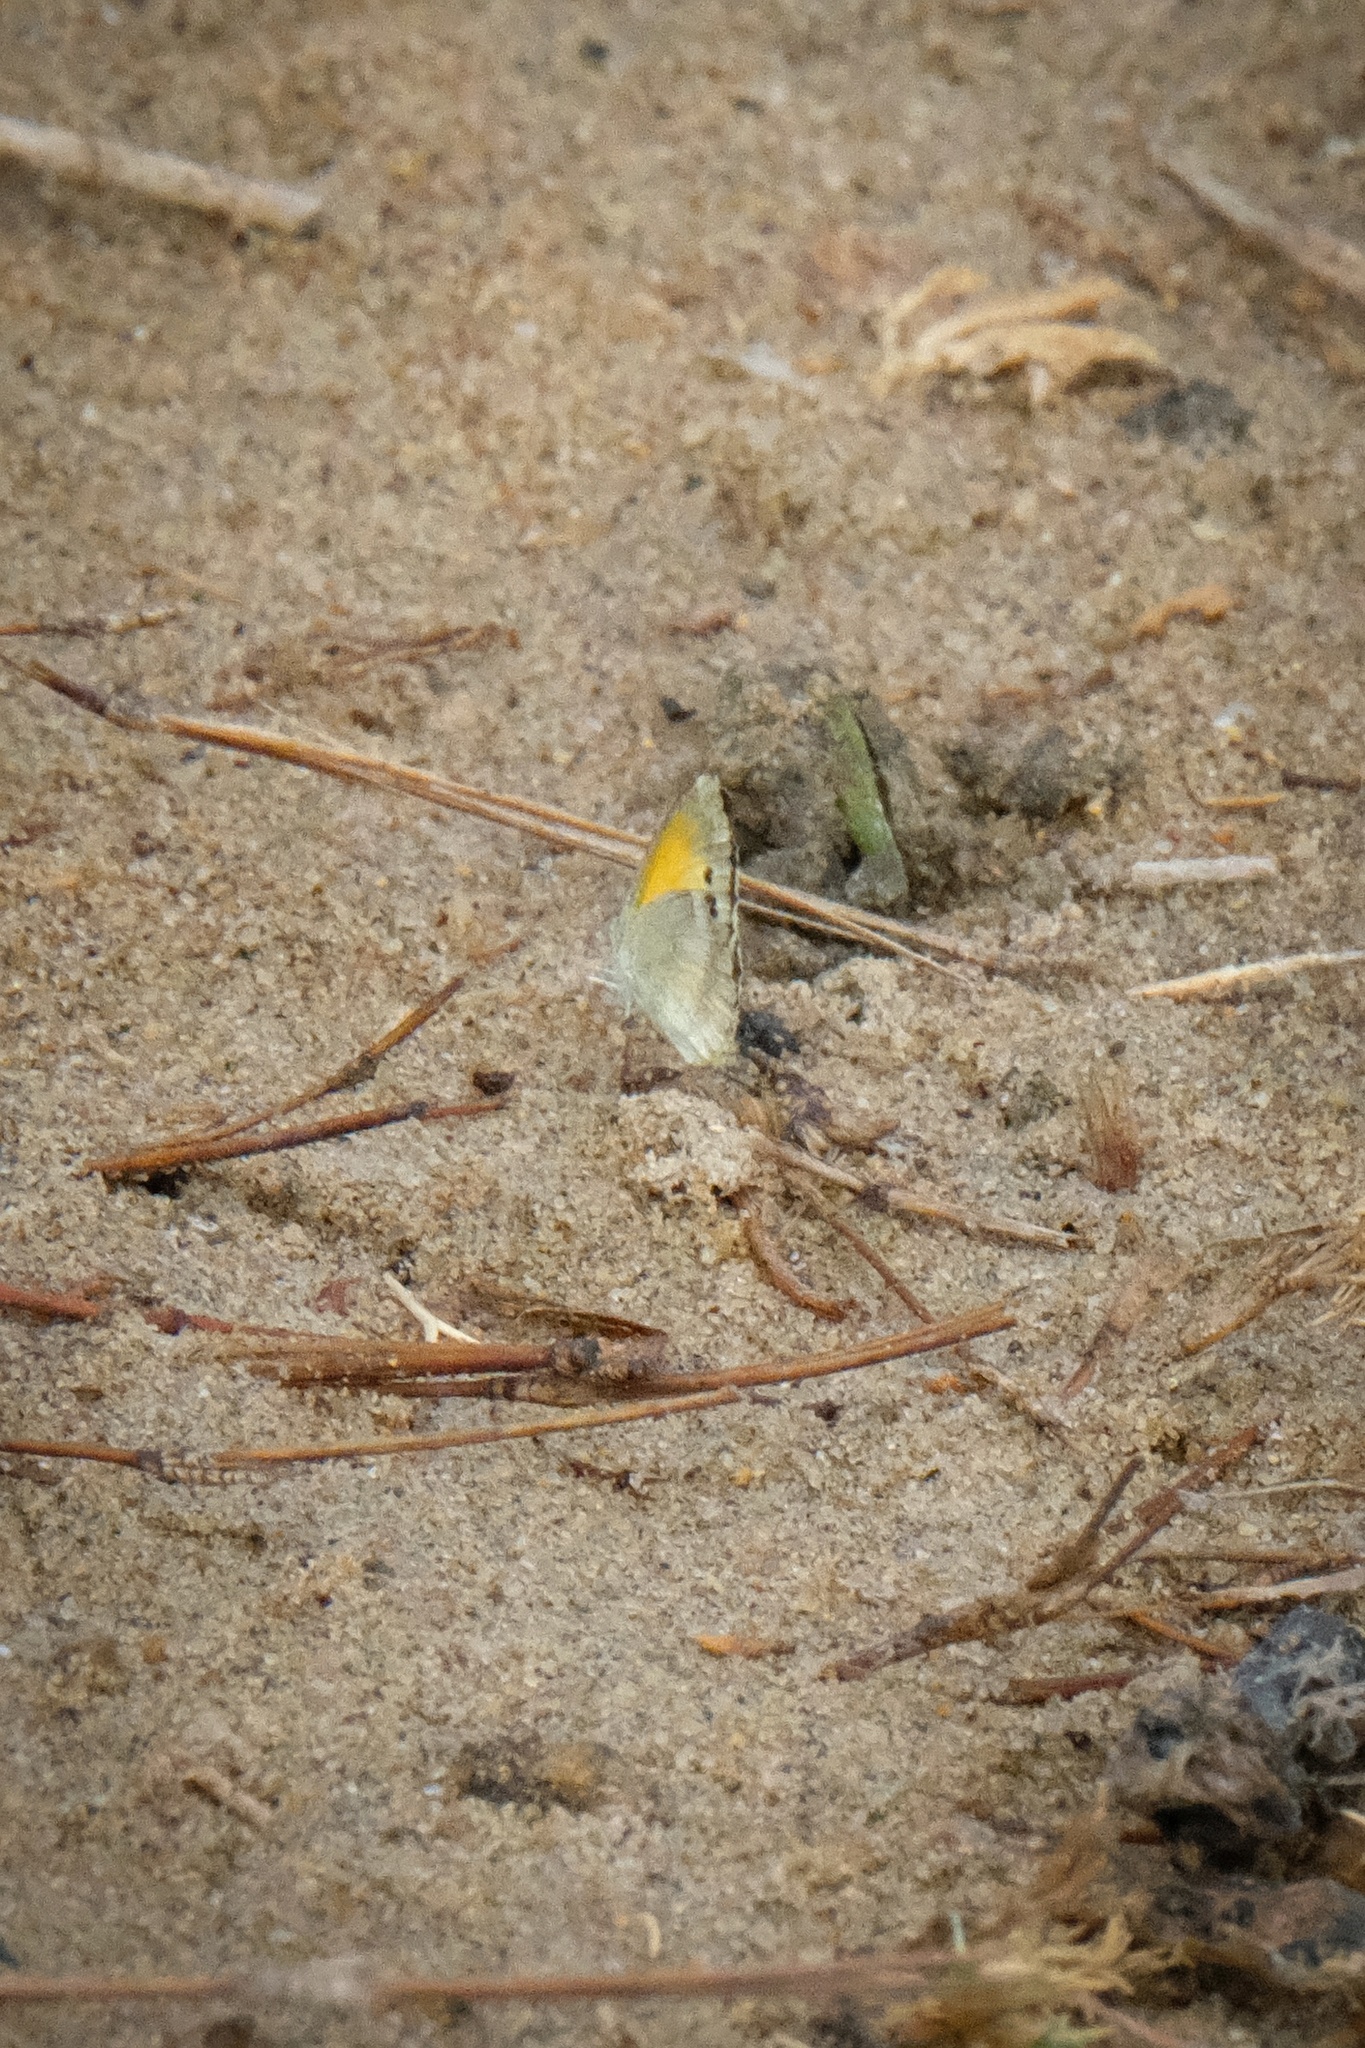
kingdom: Animalia
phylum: Arthropoda
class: Insecta
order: Lepidoptera
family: Pieridae
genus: Nathalis
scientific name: Nathalis iole
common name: Dainty sulphur
